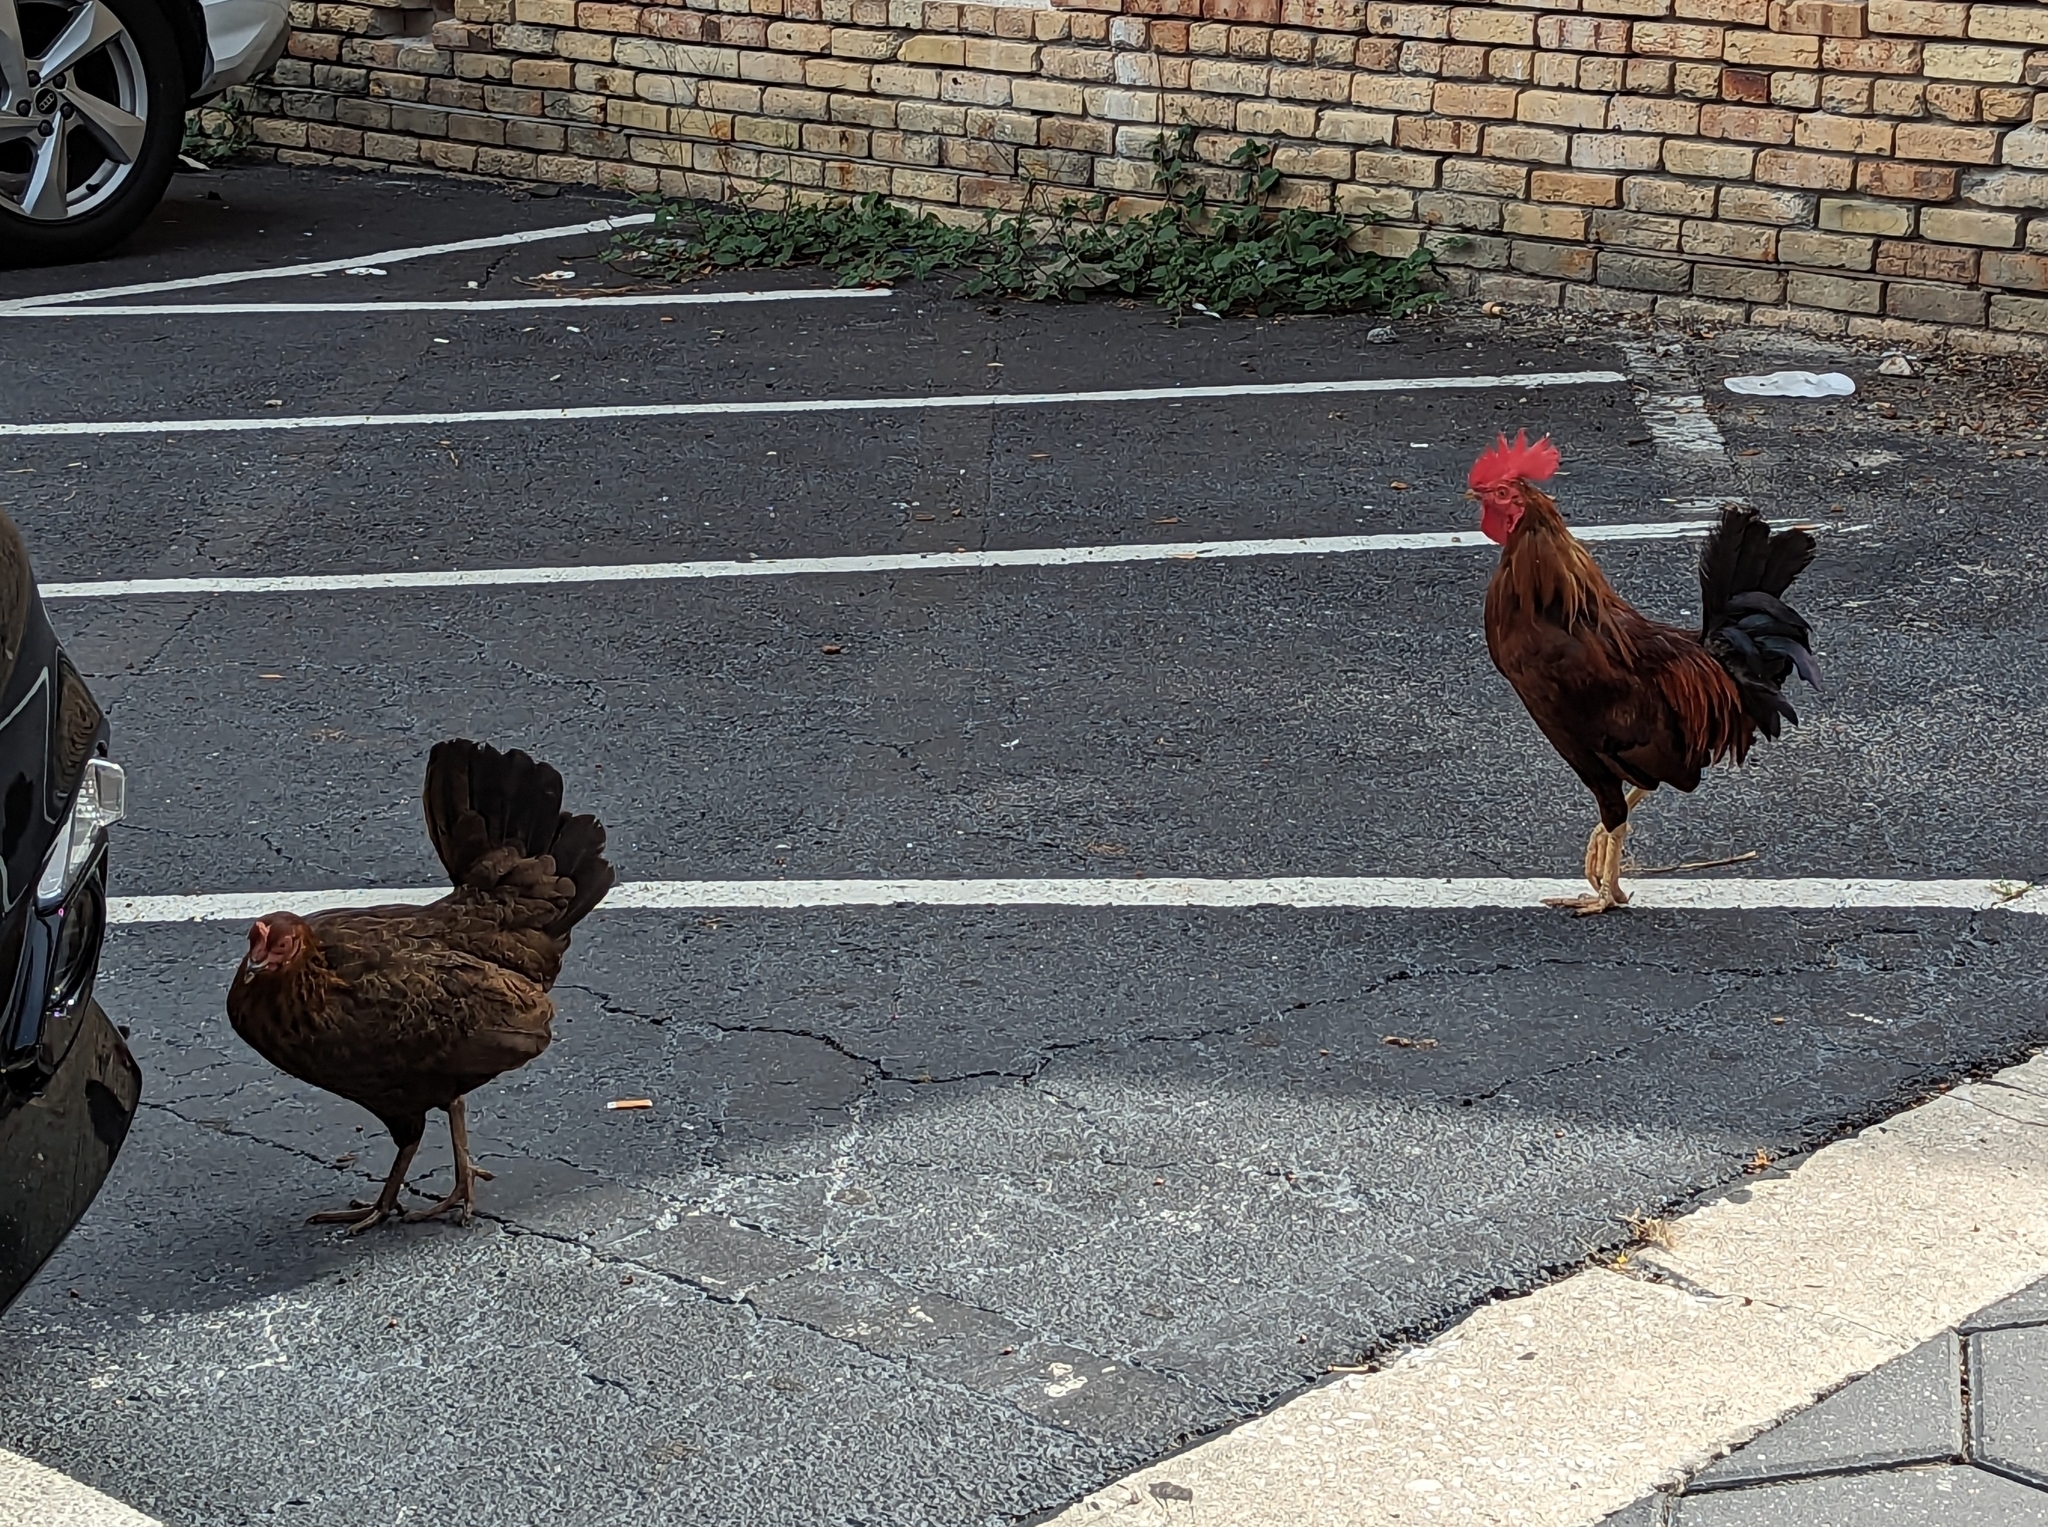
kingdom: Animalia
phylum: Chordata
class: Aves
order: Galliformes
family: Phasianidae
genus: Gallus
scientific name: Gallus gallus
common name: Red junglefowl
